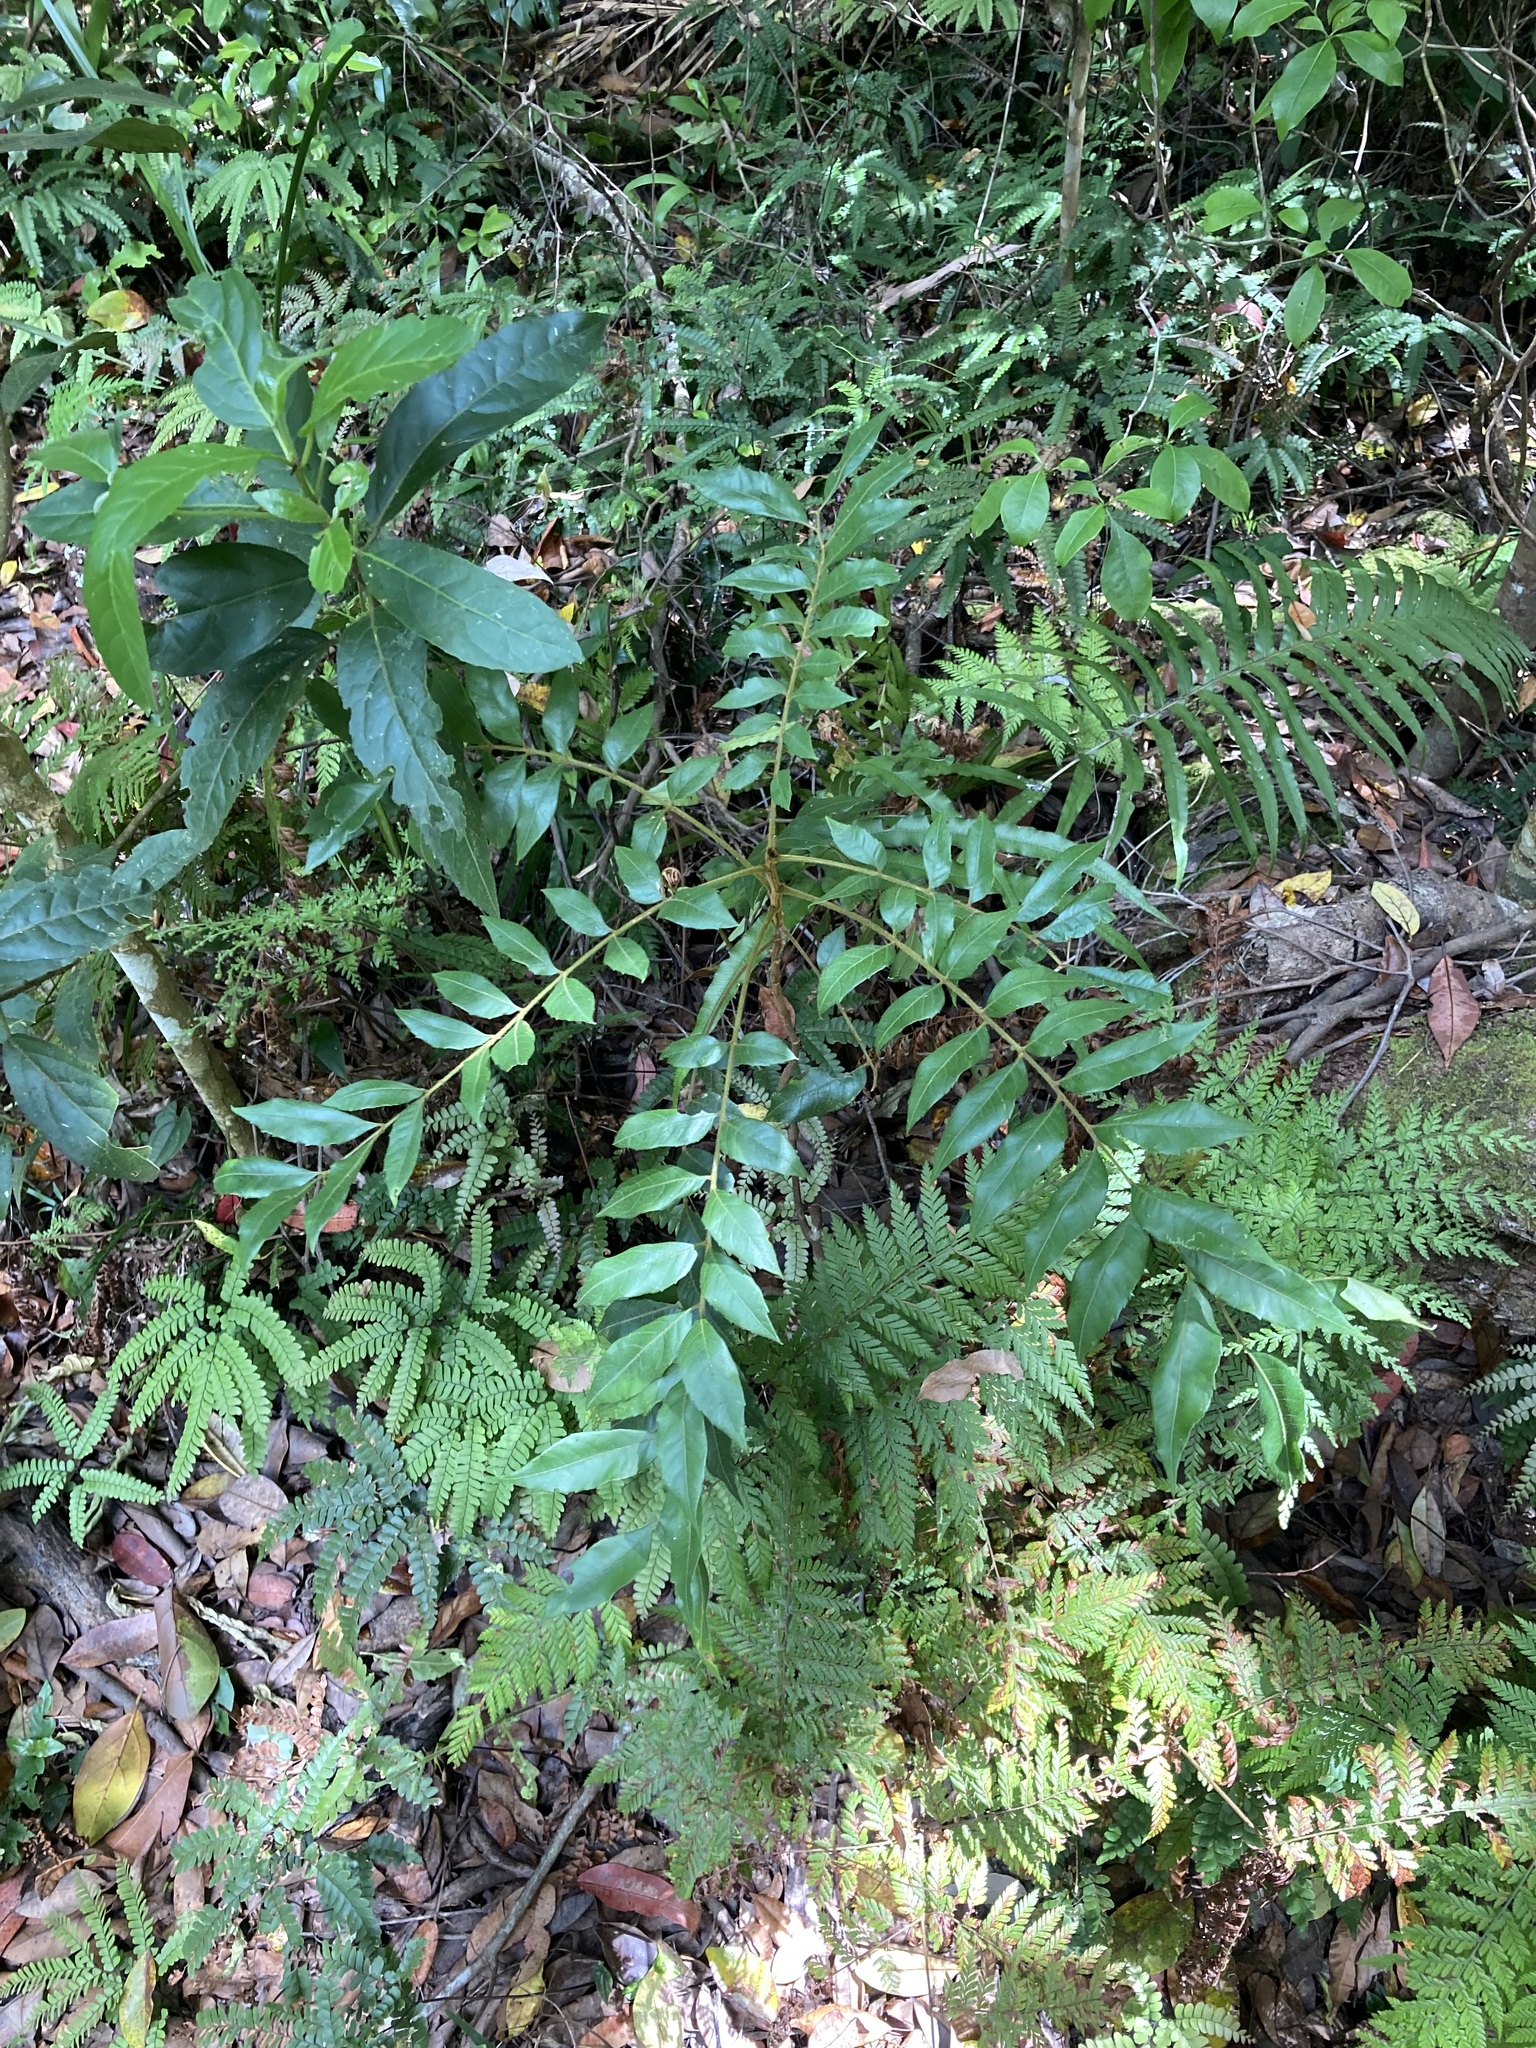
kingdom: Plantae
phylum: Tracheophyta
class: Magnoliopsida
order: Sapindales
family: Sapindaceae
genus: Jagera
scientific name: Jagera pseudorhus
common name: Fern-leaf-tamarind
